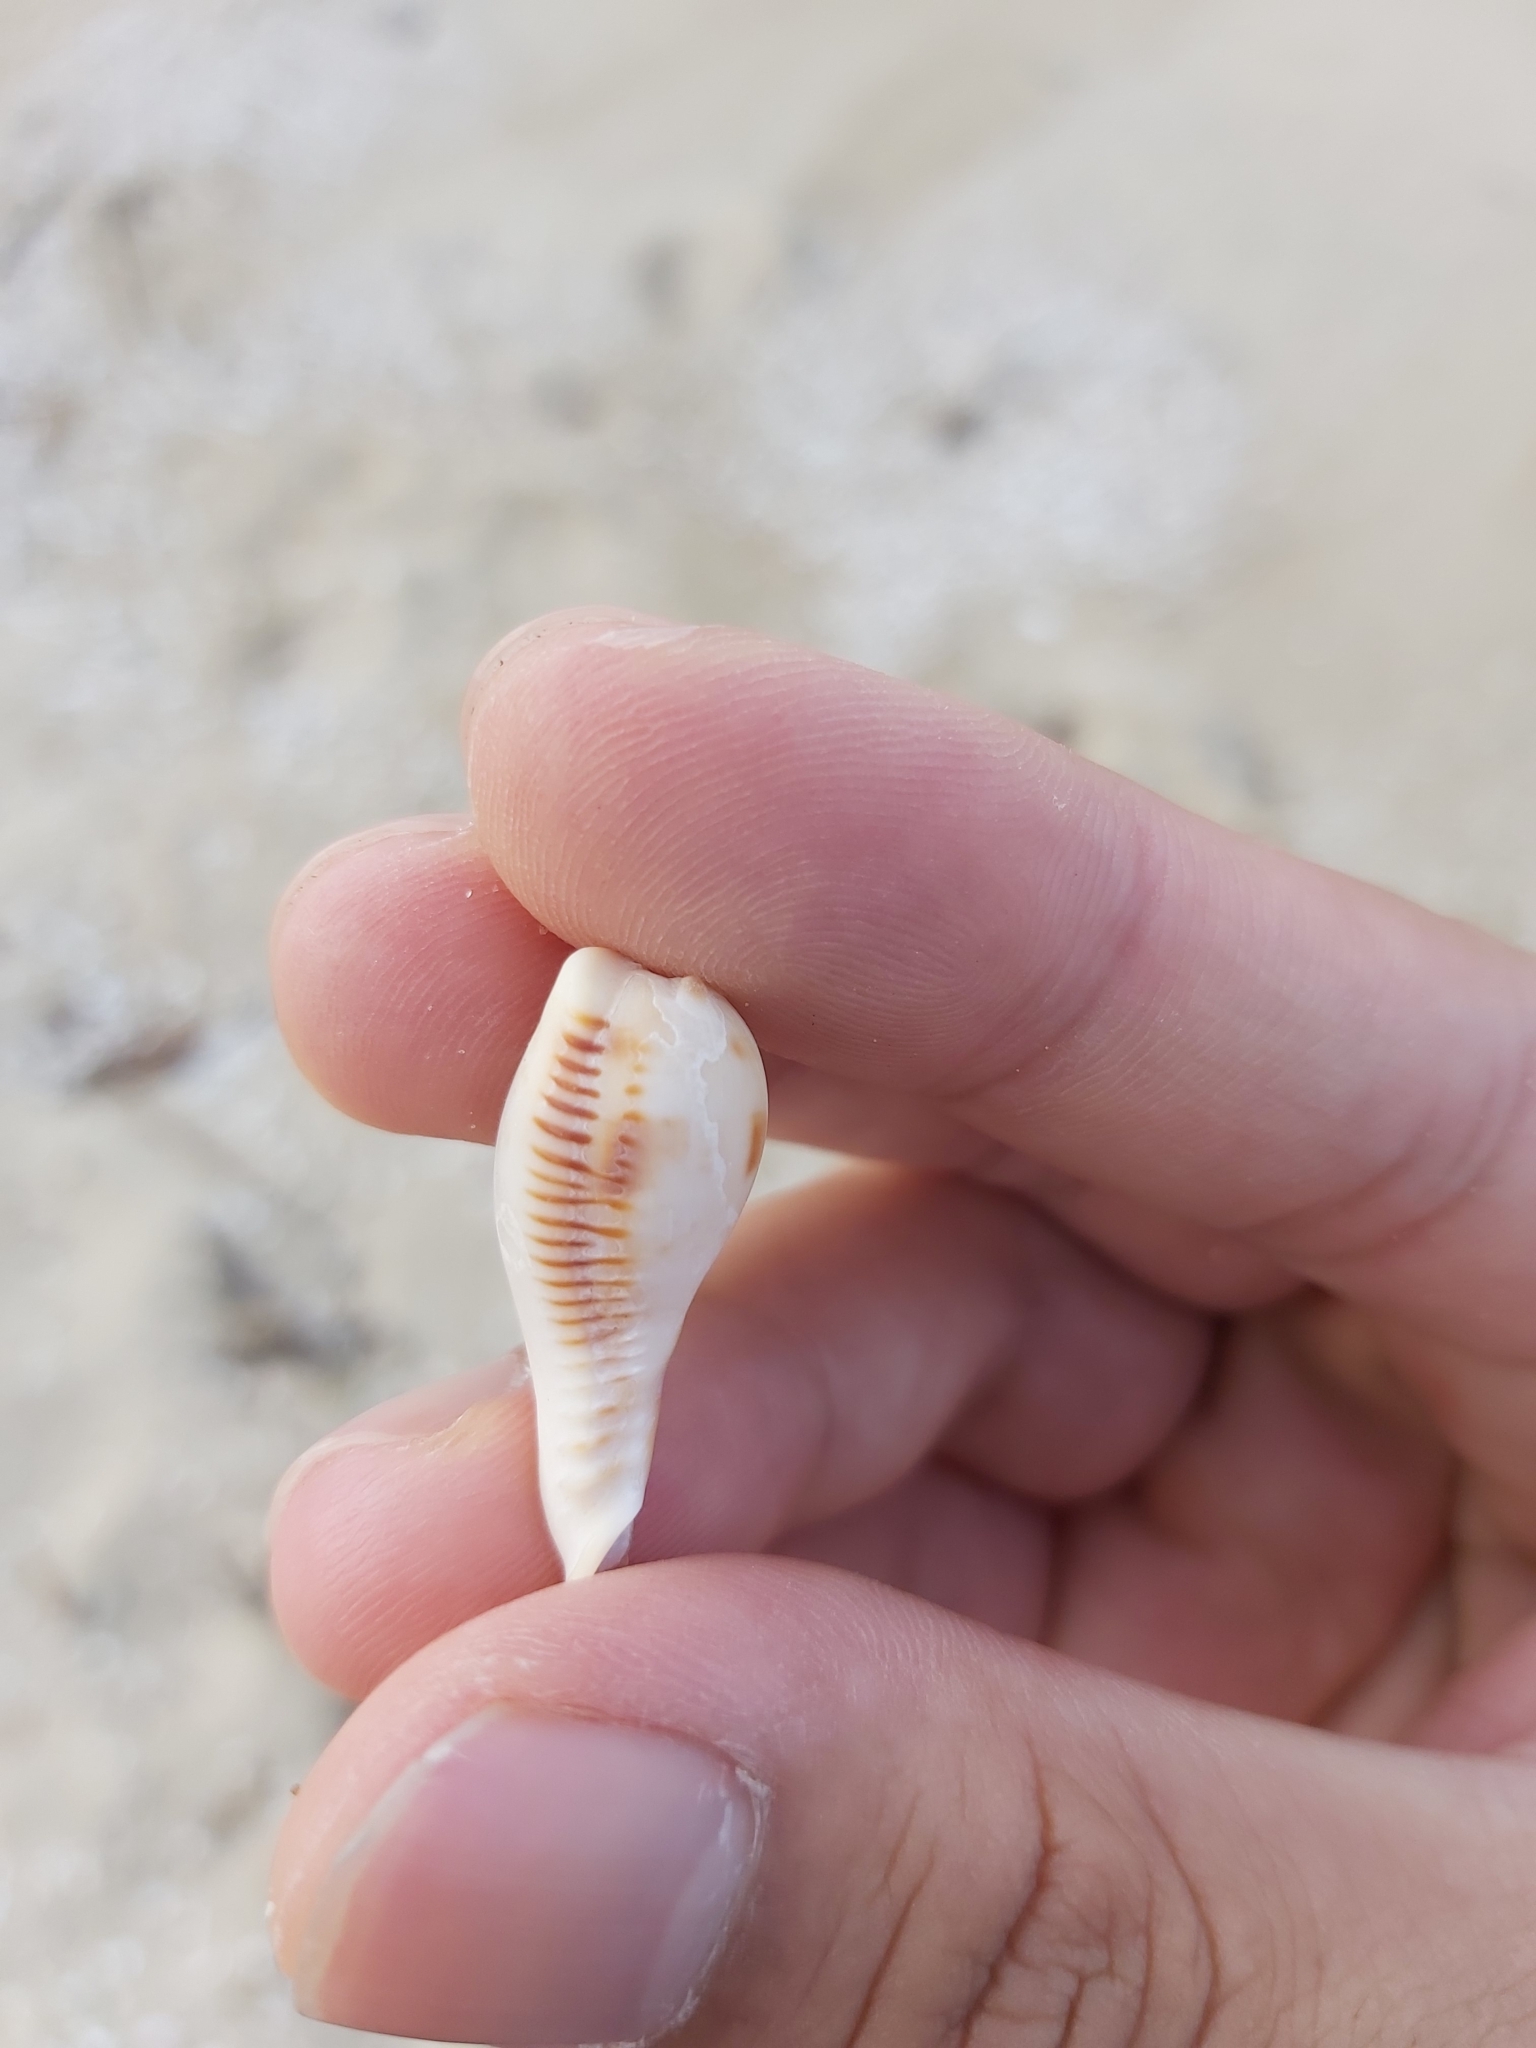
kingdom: Animalia
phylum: Mollusca
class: Gastropoda
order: Littorinimorpha
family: Cypraeidae
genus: Erronea
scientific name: Erronea pyriformis
